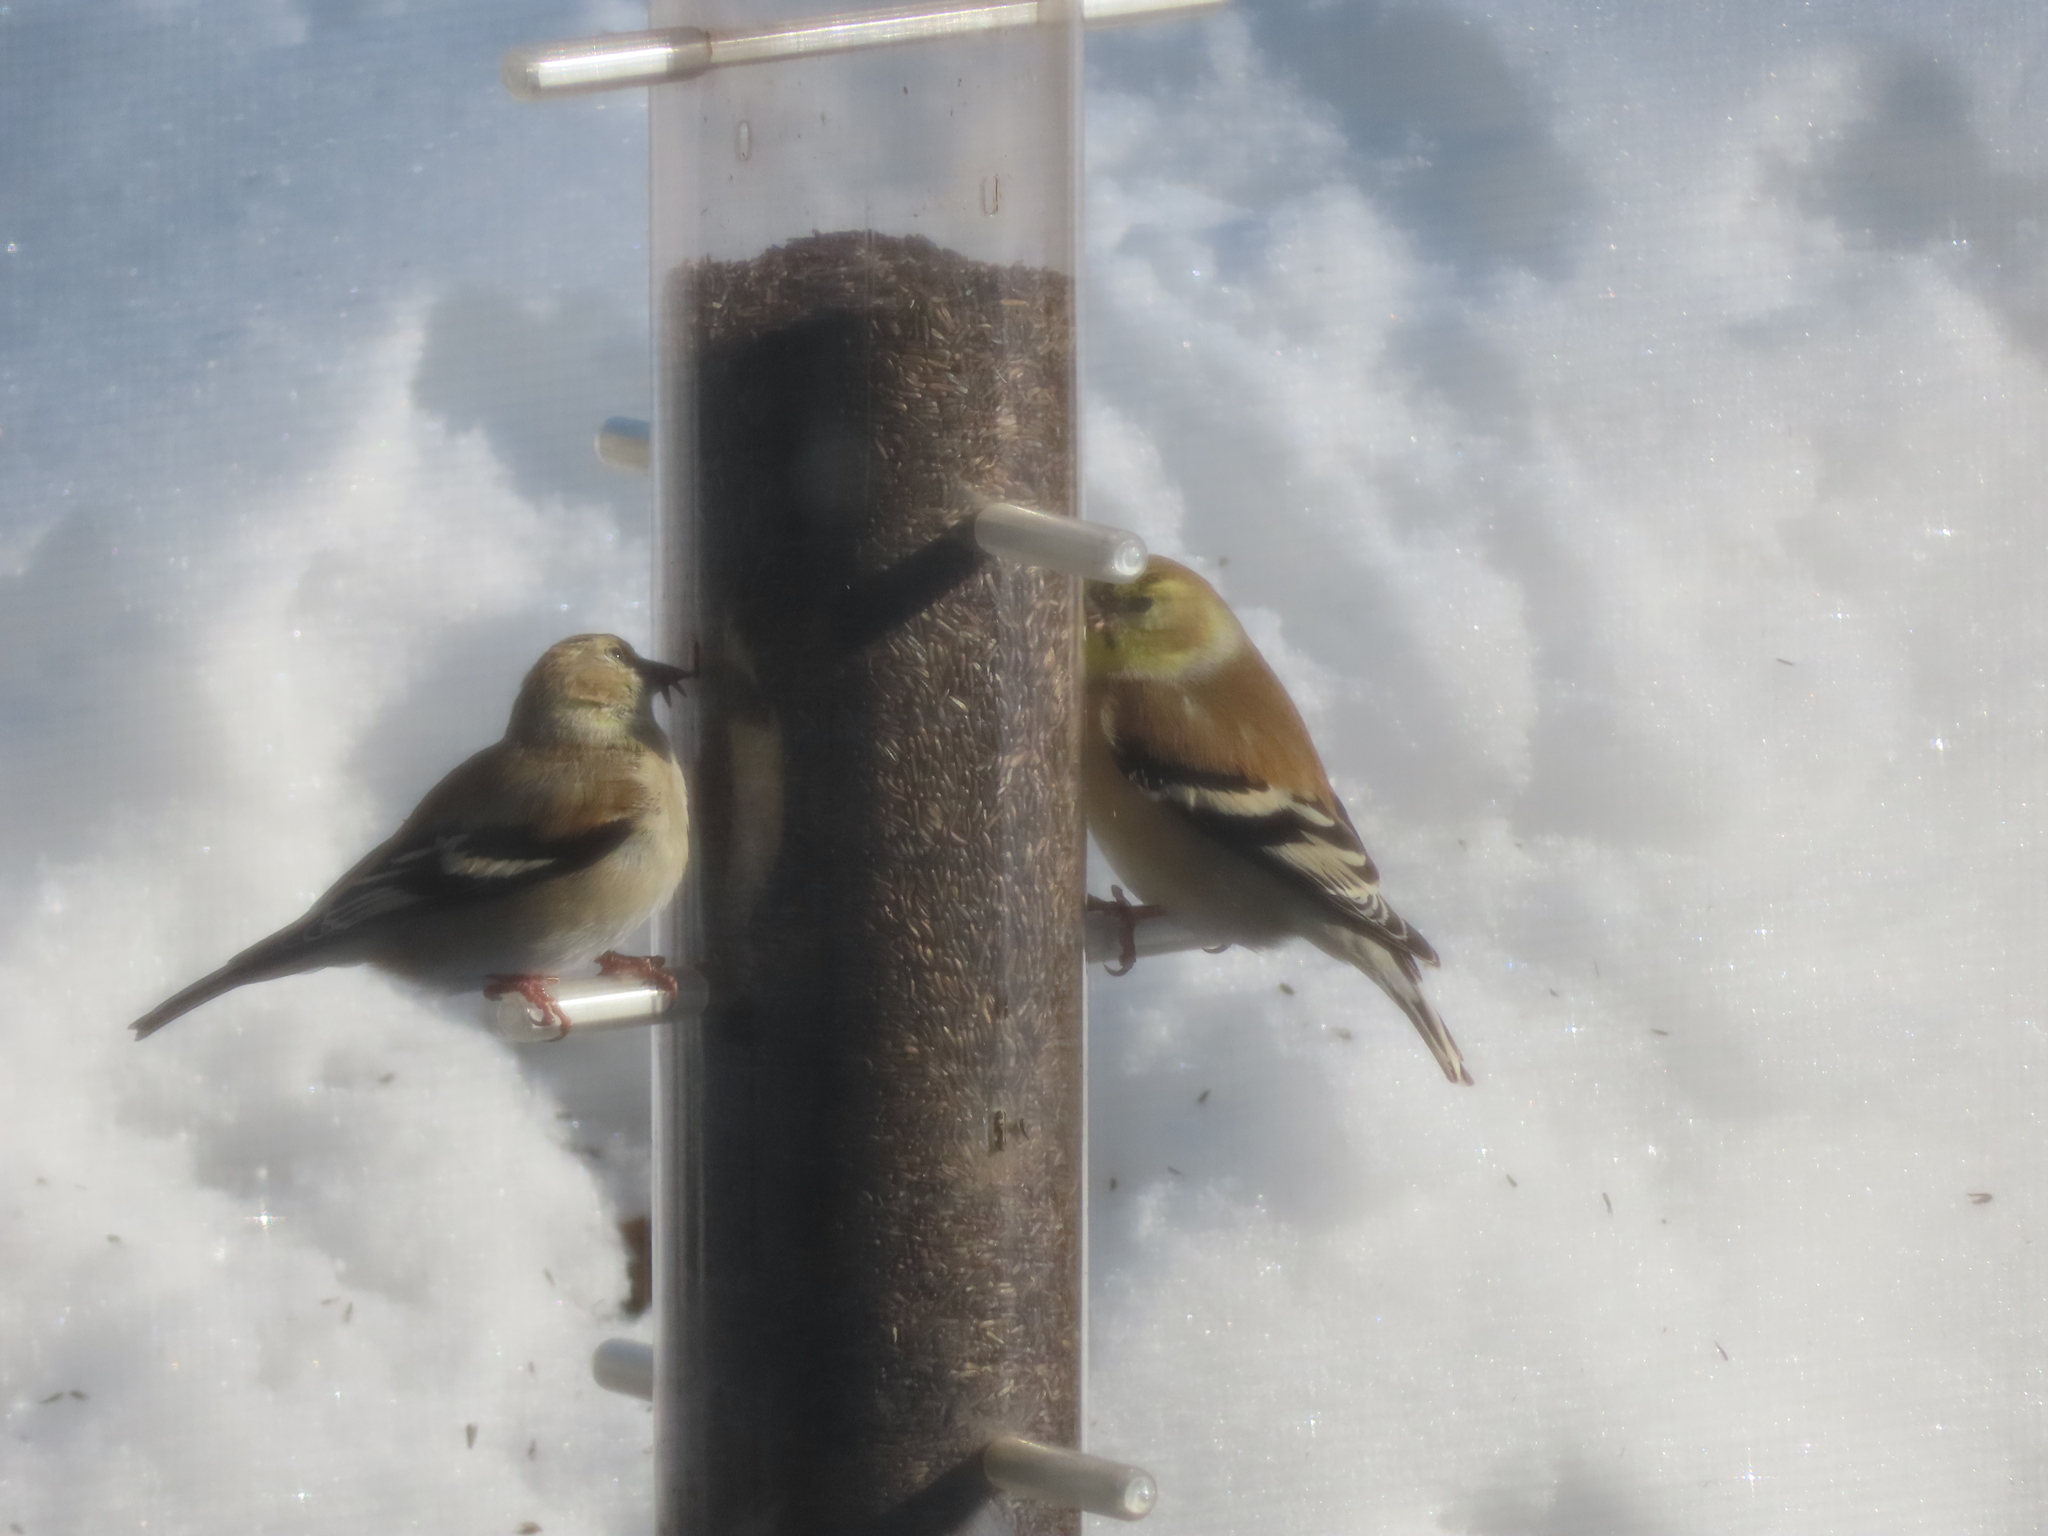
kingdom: Animalia
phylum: Chordata
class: Aves
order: Passeriformes
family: Fringillidae
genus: Spinus
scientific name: Spinus tristis
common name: American goldfinch
